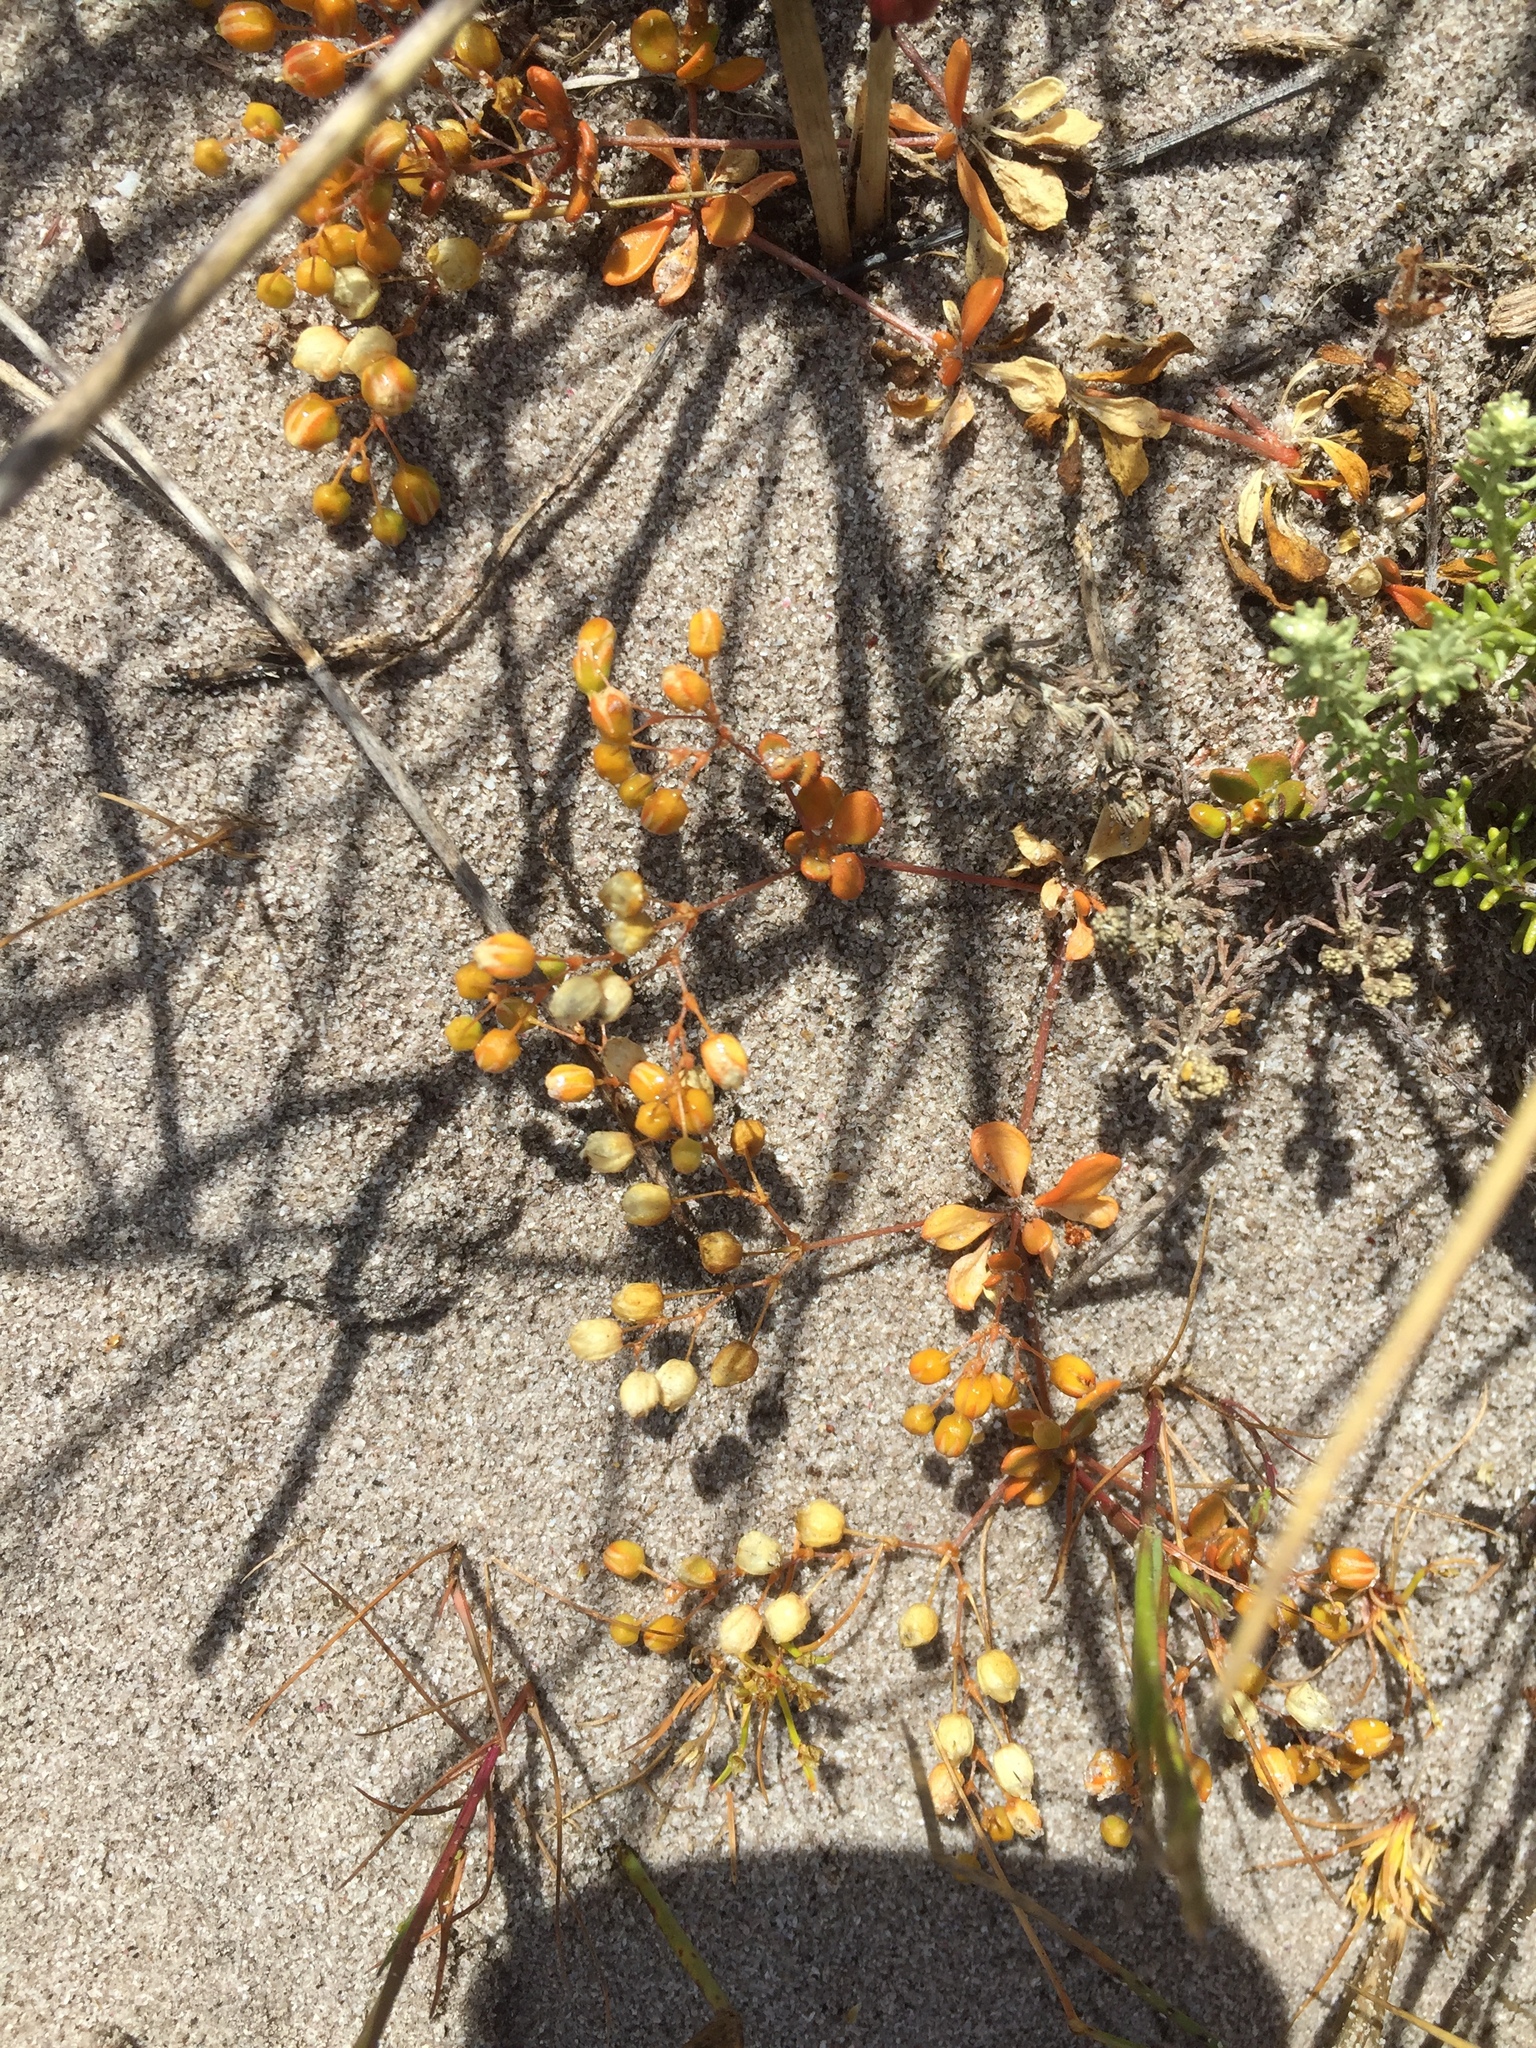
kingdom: Plantae
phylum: Tracheophyta
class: Magnoliopsida
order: Caryophyllales
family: Molluginaceae
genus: Pharnaceum
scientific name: Pharnaceum cordifolium
